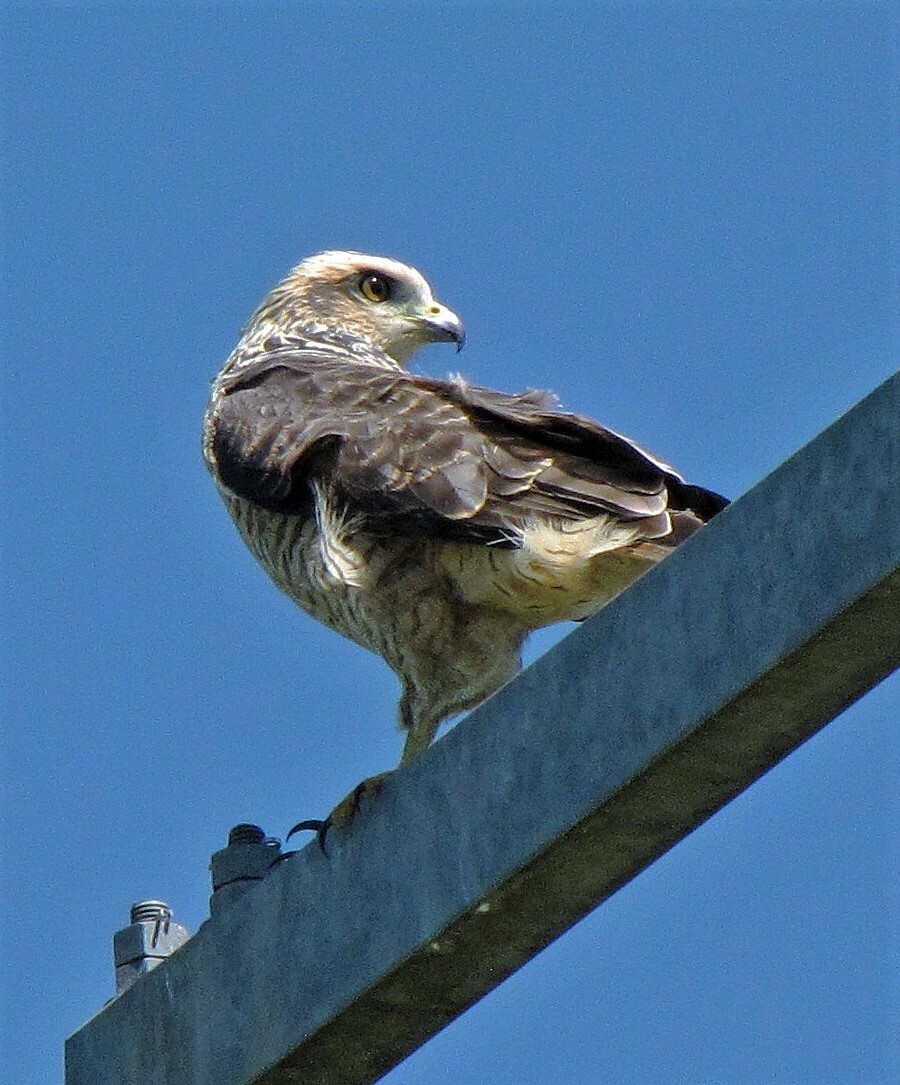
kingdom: Animalia
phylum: Chordata
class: Aves
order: Accipitriformes
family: Accipitridae
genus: Rupornis
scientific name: Rupornis magnirostris
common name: Roadside hawk
